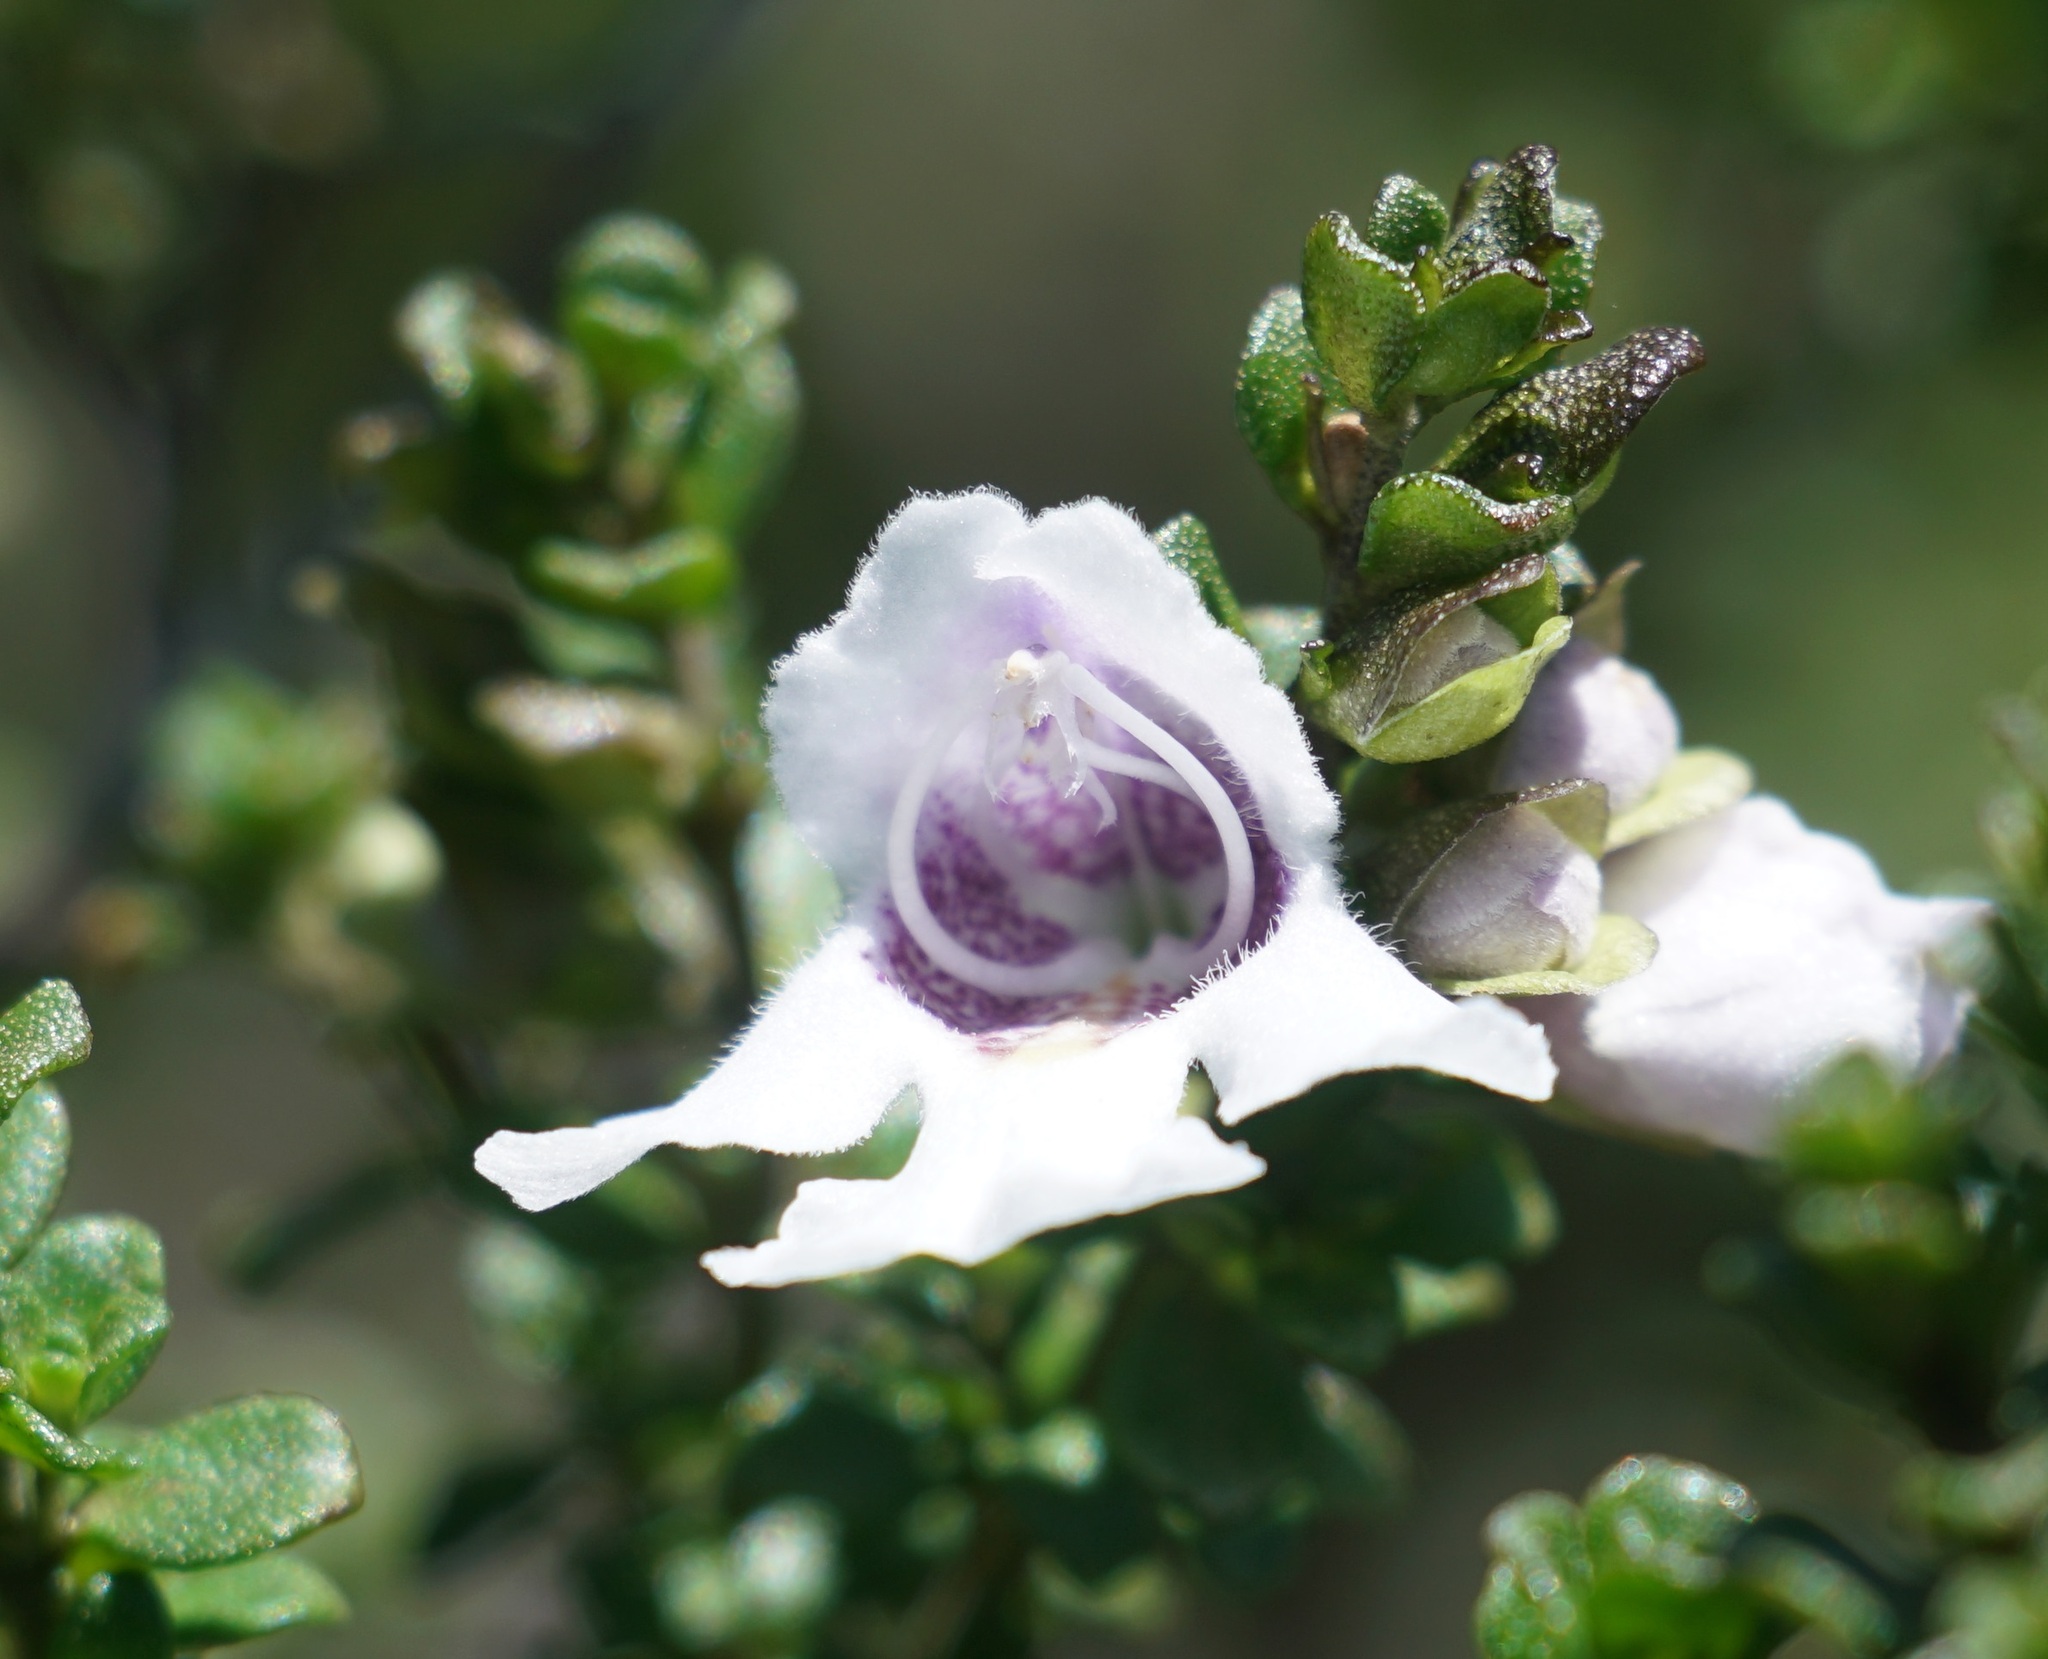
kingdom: Plantae
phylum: Tracheophyta
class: Magnoliopsida
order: Lamiales
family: Lamiaceae
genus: Prostanthera
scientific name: Prostanthera cuneata
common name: Alpine mintbush
